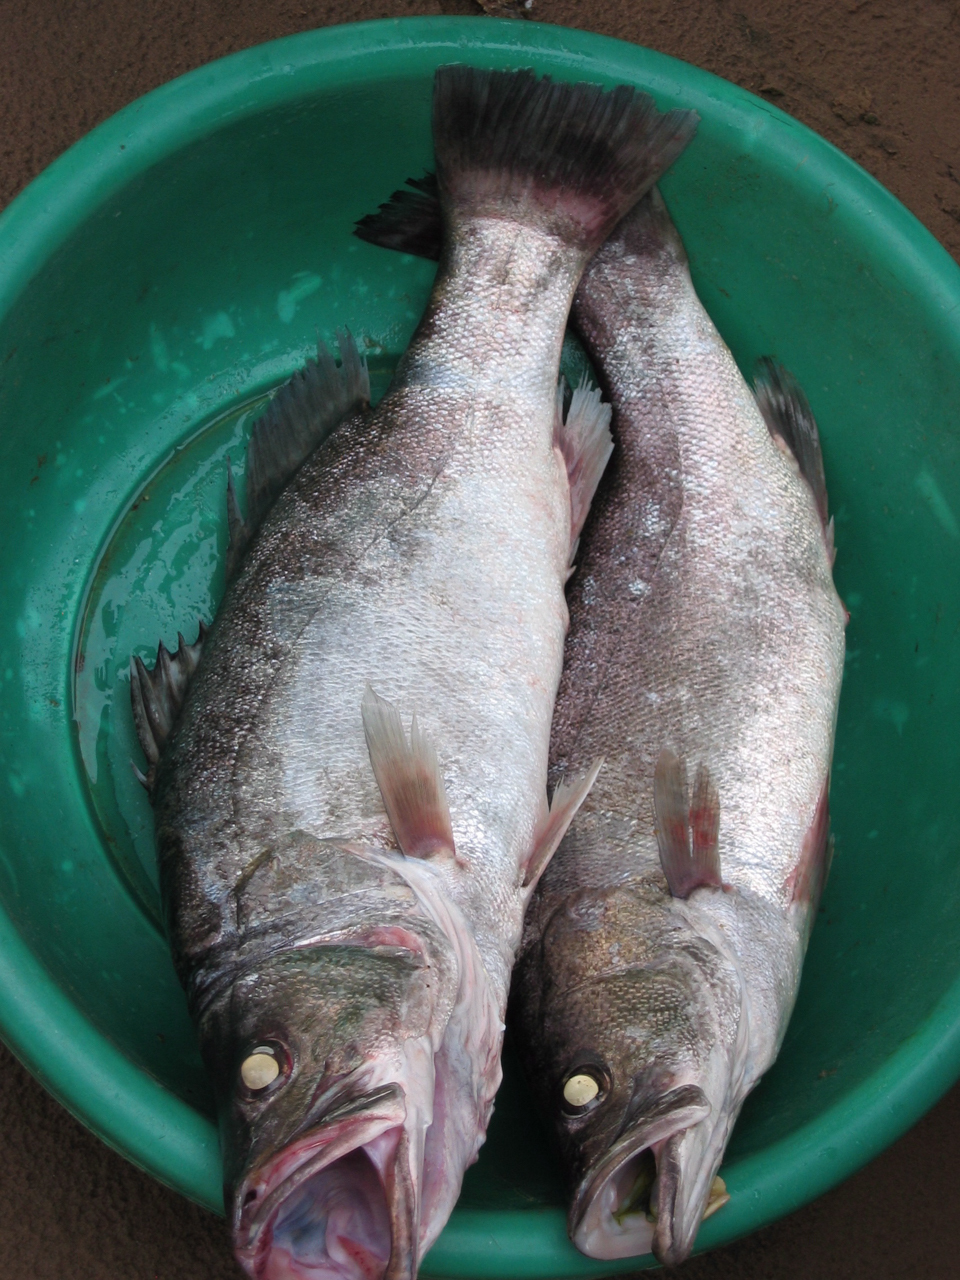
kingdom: Animalia
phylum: Chordata
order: Perciformes
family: Latidae
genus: Lates
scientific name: Lates angustifrons
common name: Tanganyika lates
